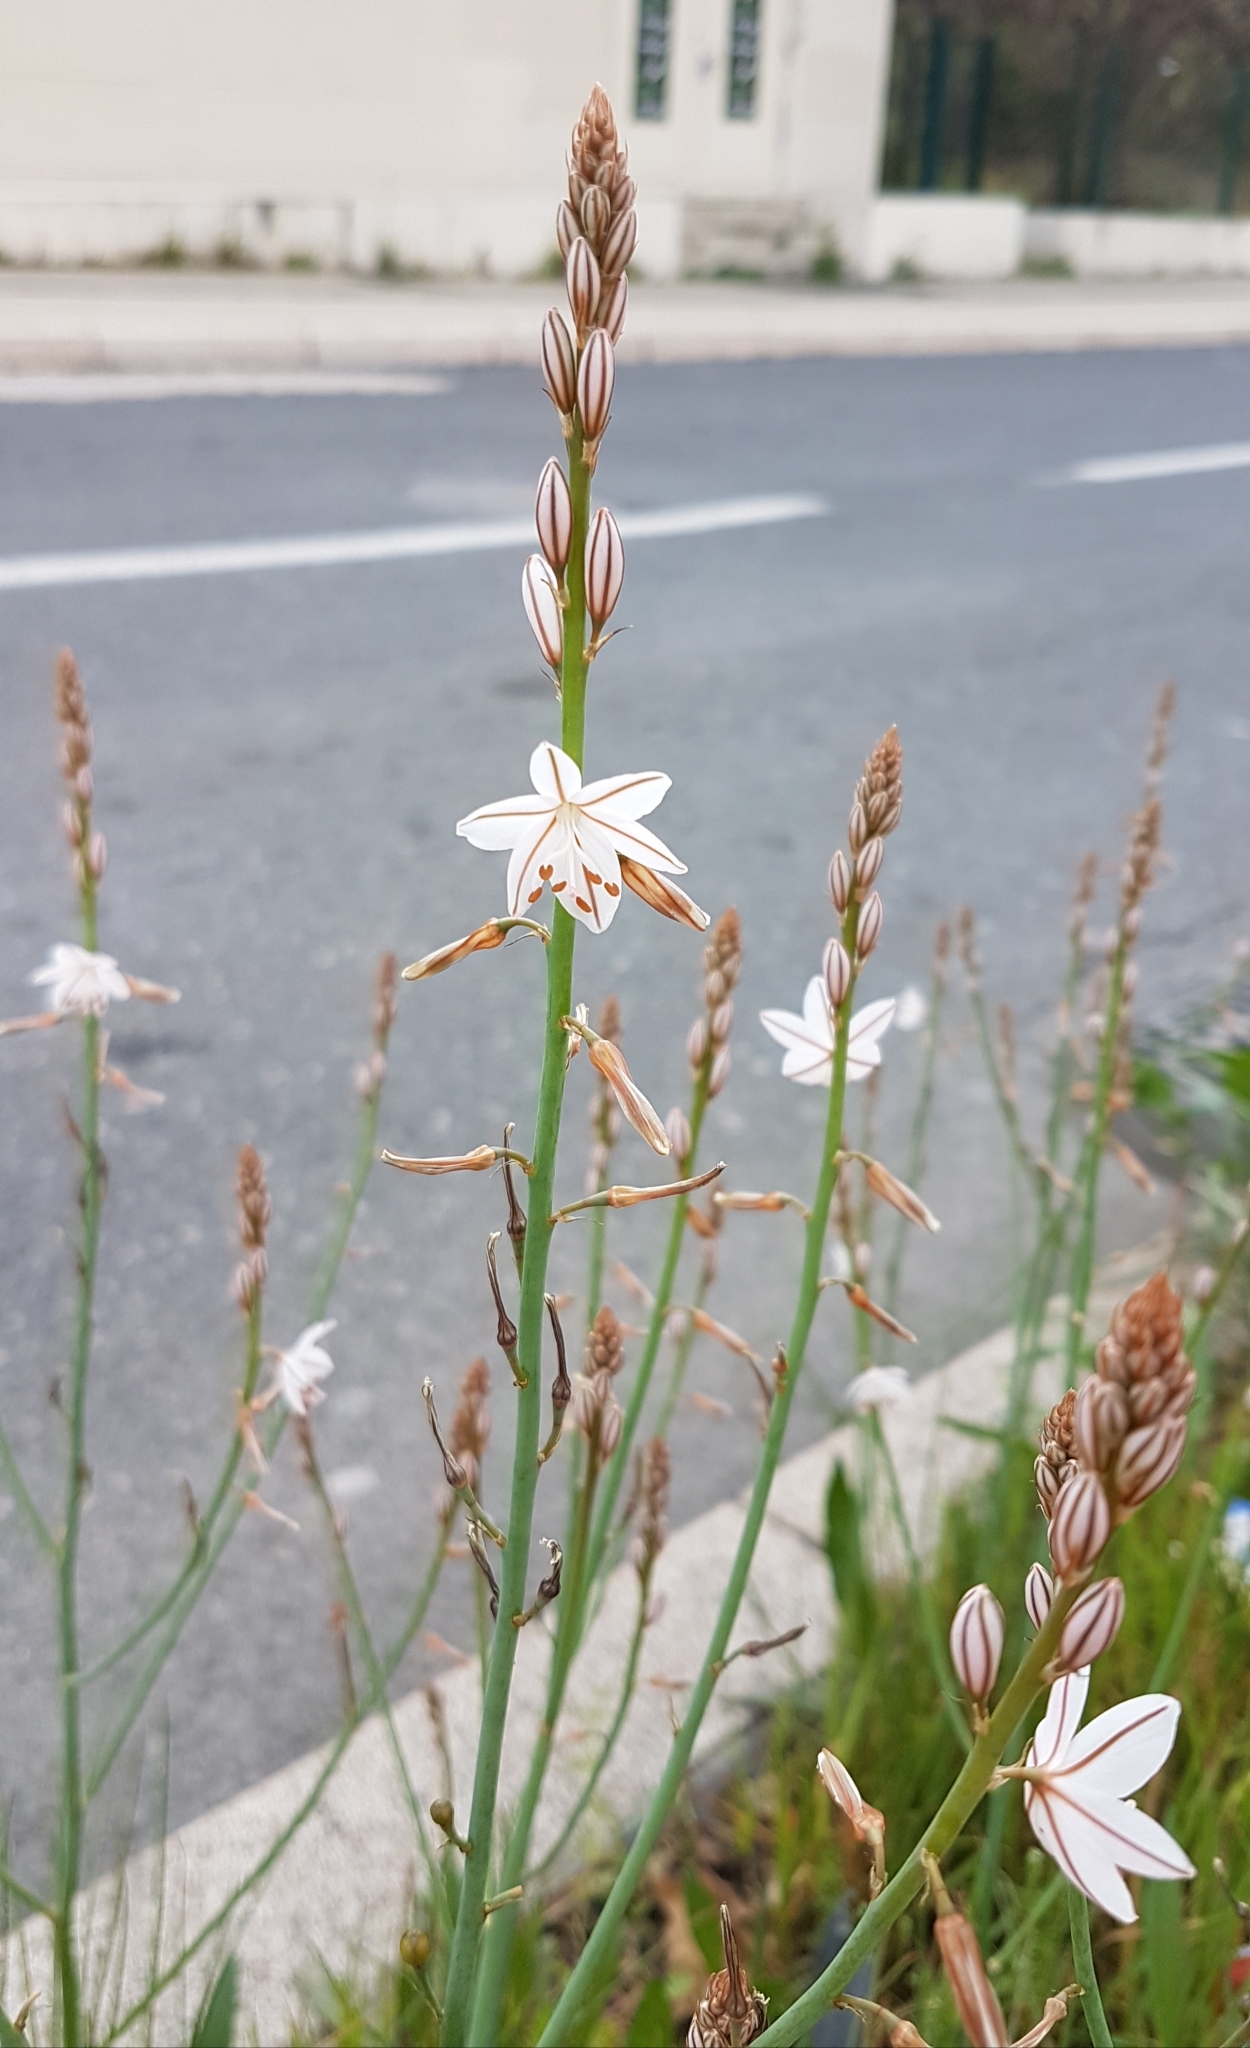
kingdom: Plantae
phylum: Tracheophyta
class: Liliopsida
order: Asparagales
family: Asphodelaceae
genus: Asphodelus
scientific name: Asphodelus fistulosus
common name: Onionweed
